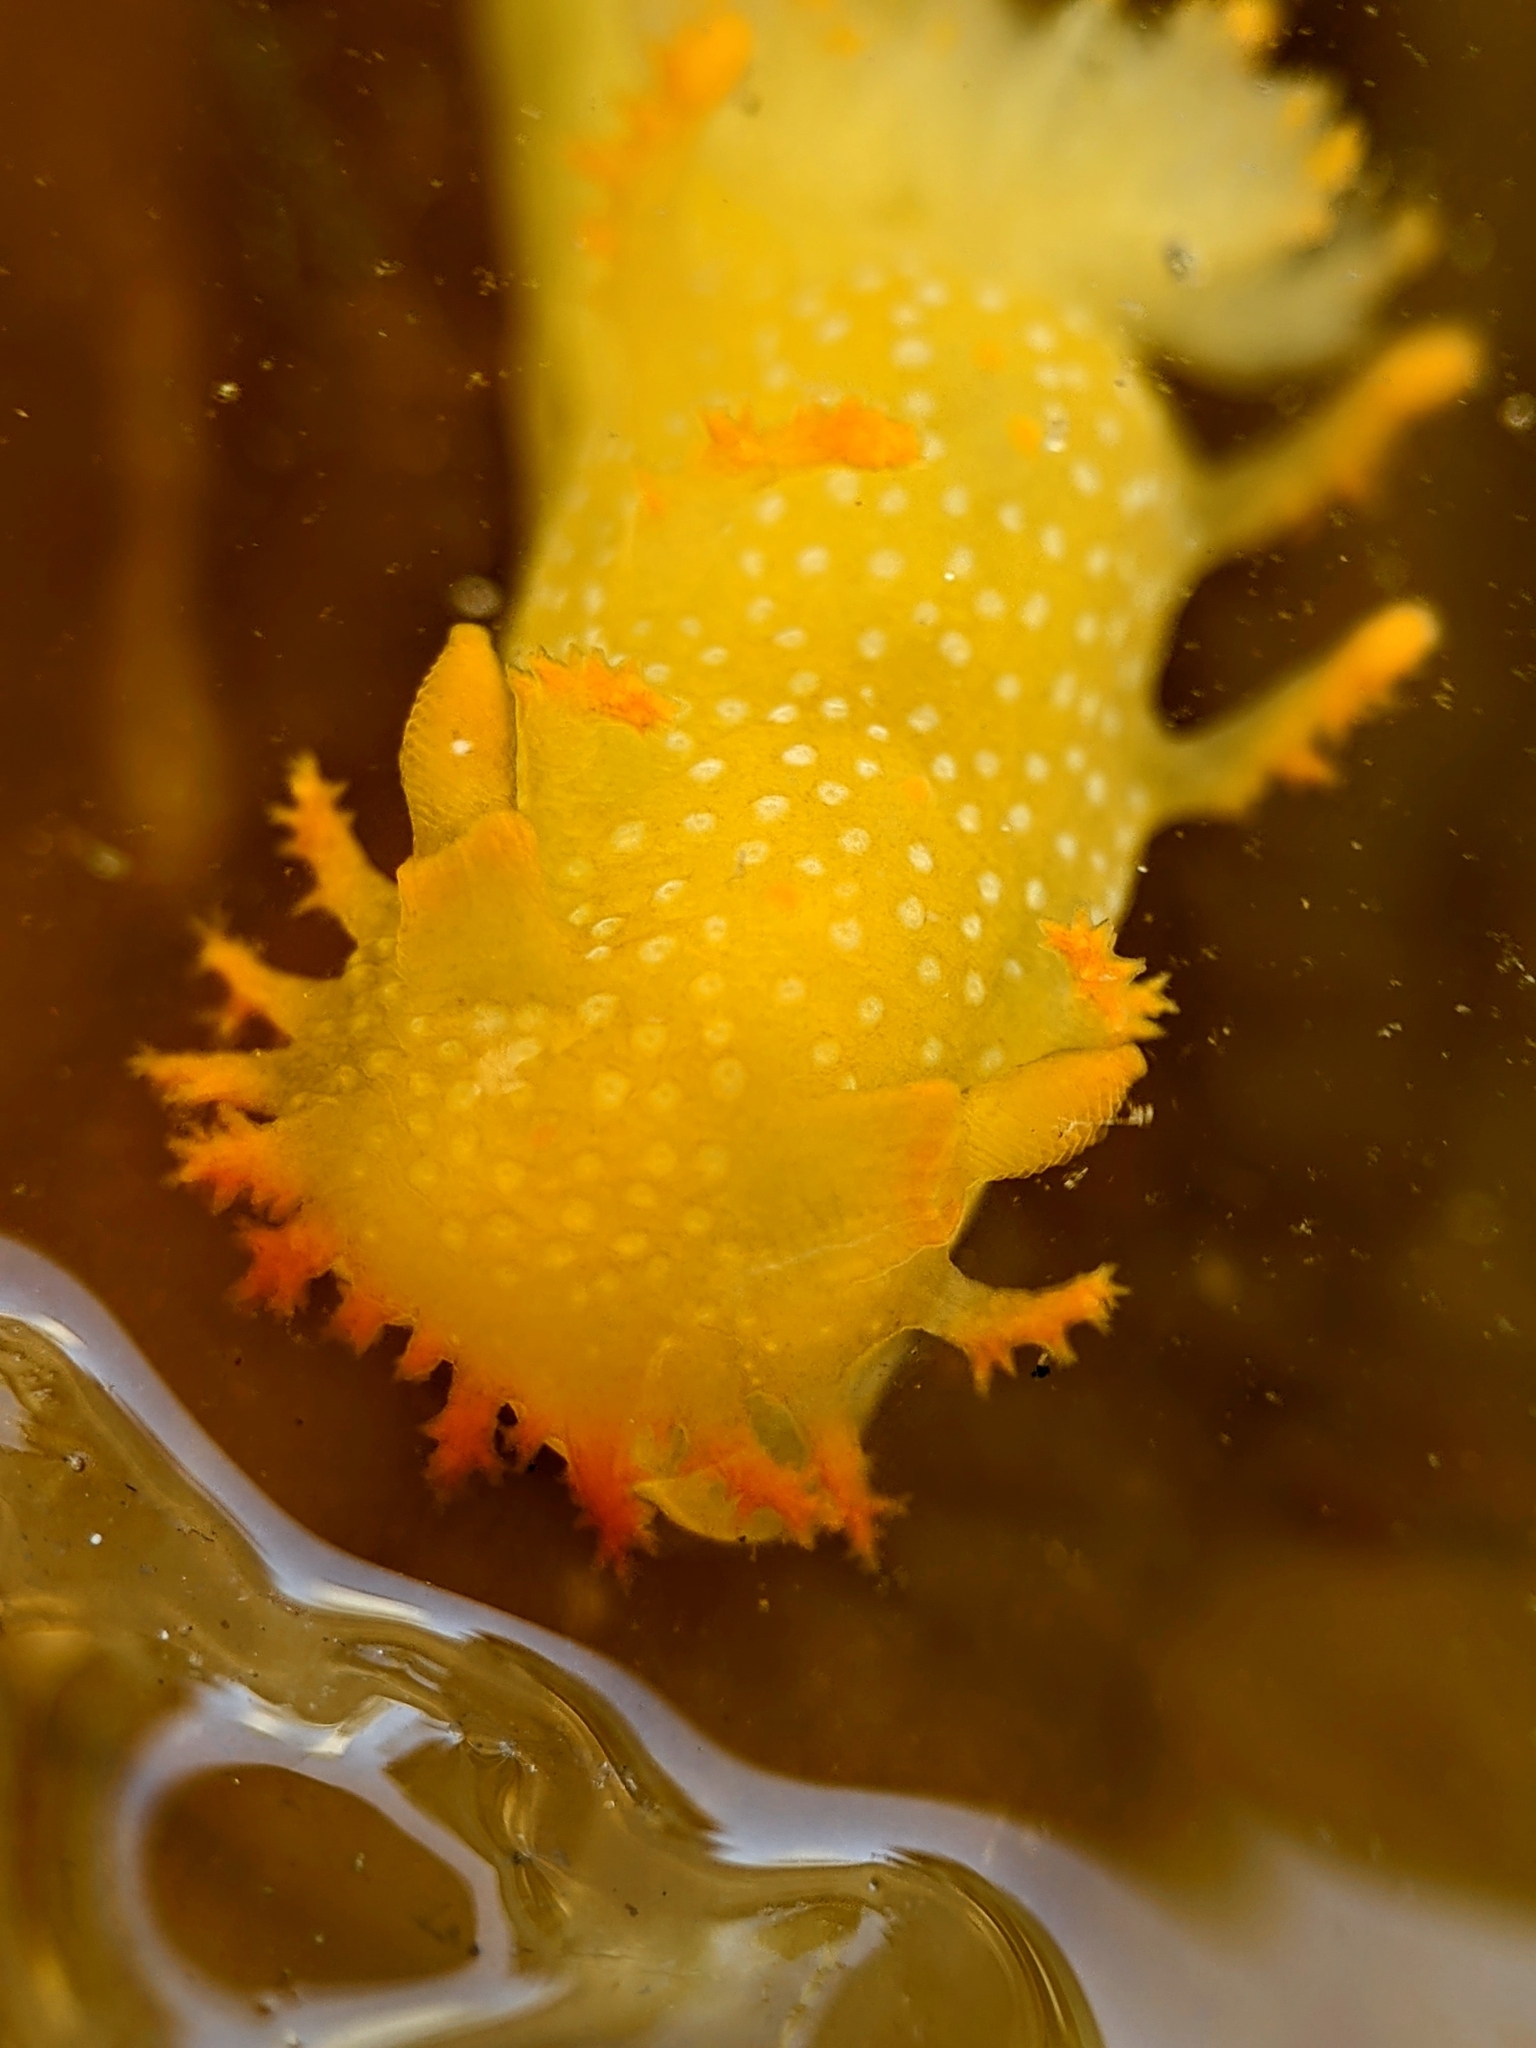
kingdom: Animalia
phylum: Mollusca
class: Gastropoda
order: Nudibranchia
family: Polyceridae
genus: Triopha
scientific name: Triopha maculata
